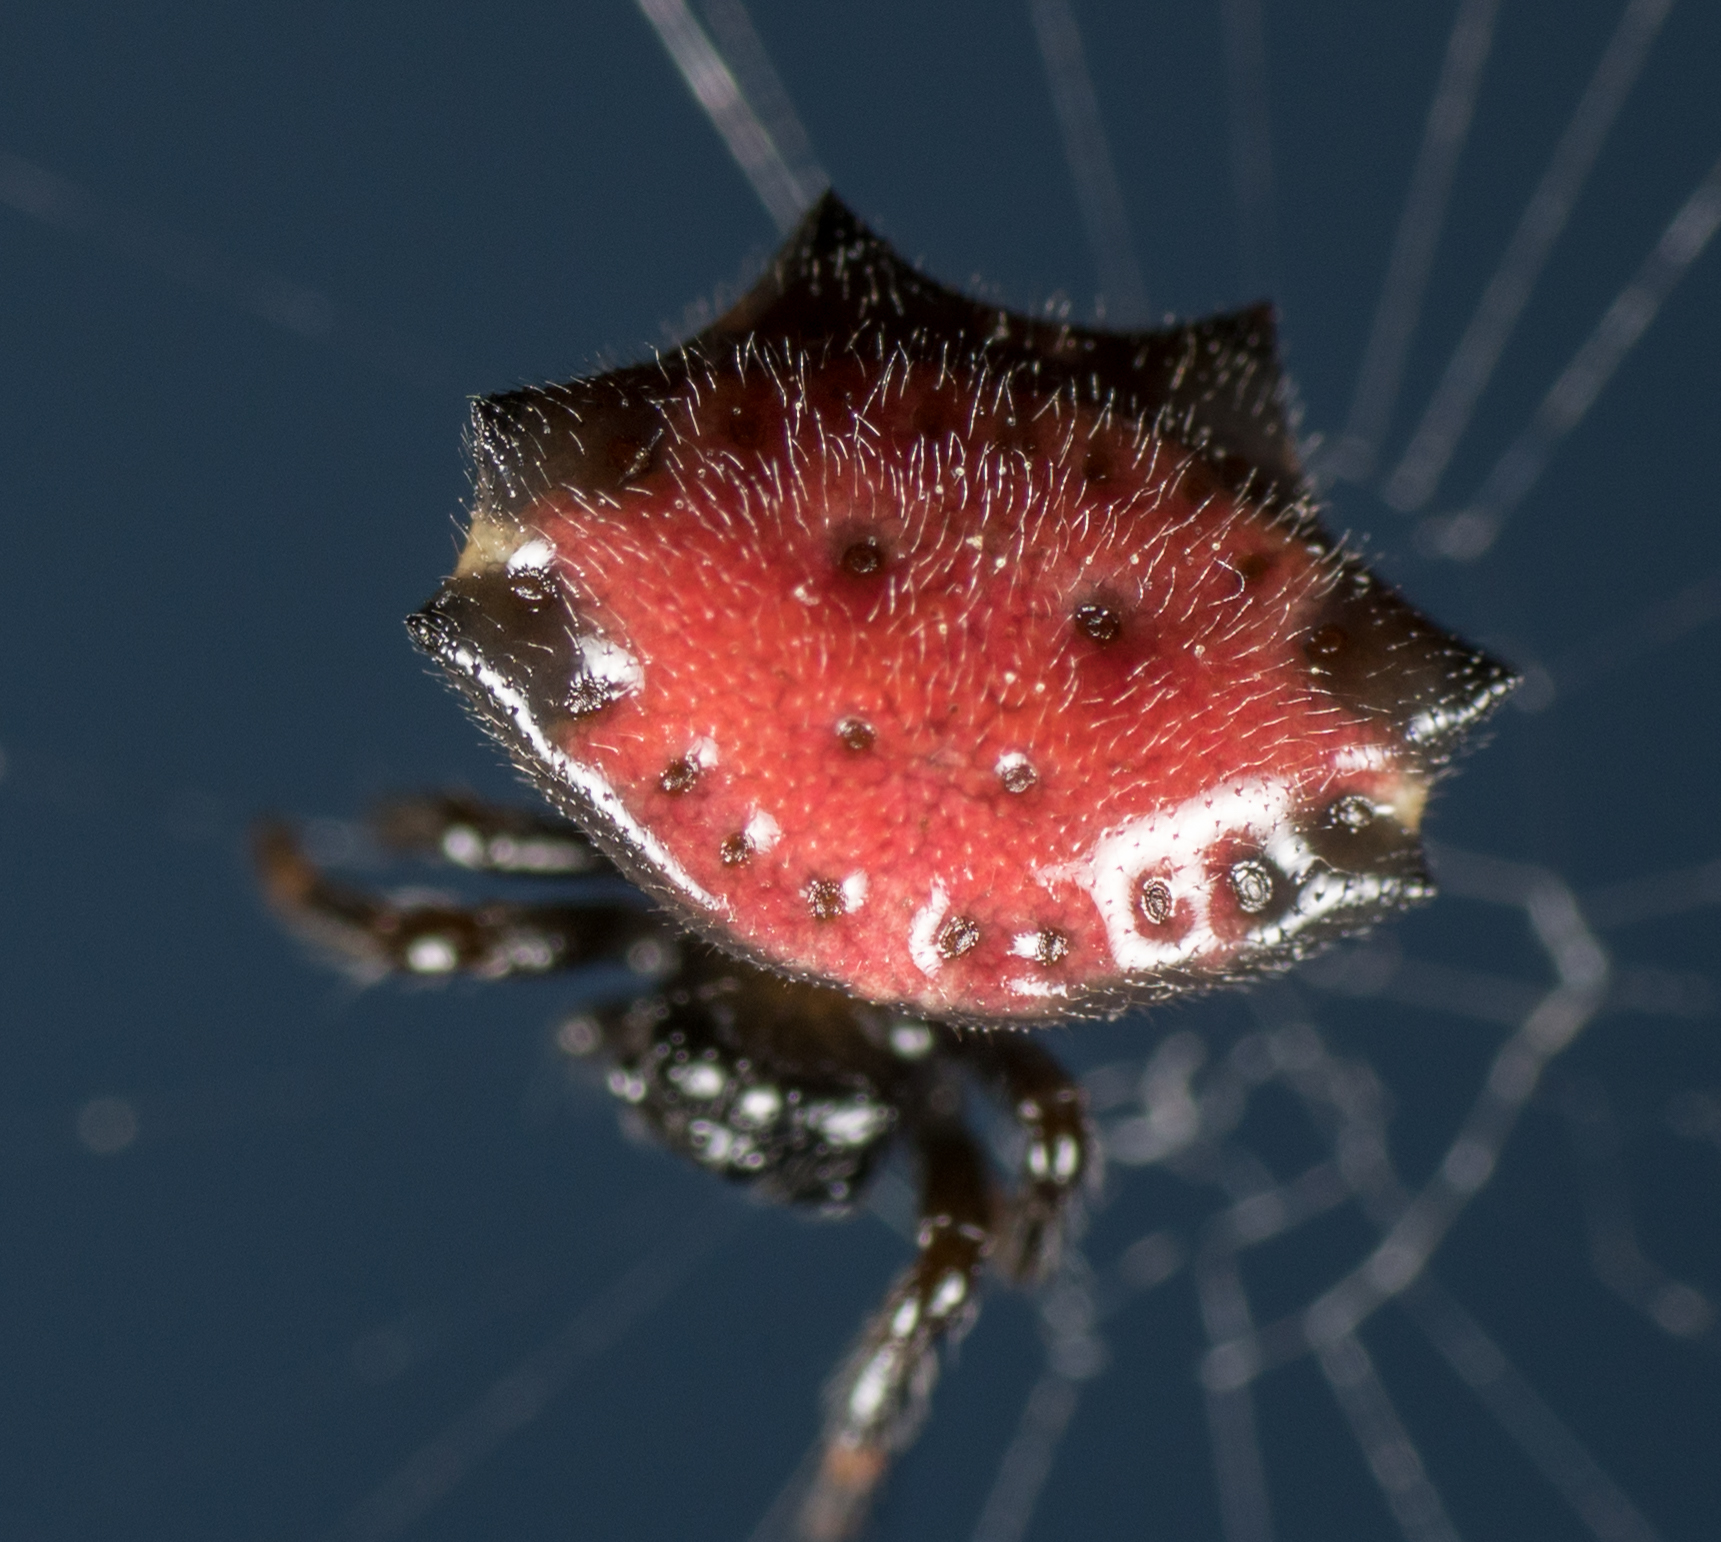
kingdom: Animalia
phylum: Arthropoda
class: Arachnida
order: Araneae
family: Araneidae
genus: Gasteracantha
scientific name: Gasteracantha cancriformis
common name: Orb weavers
